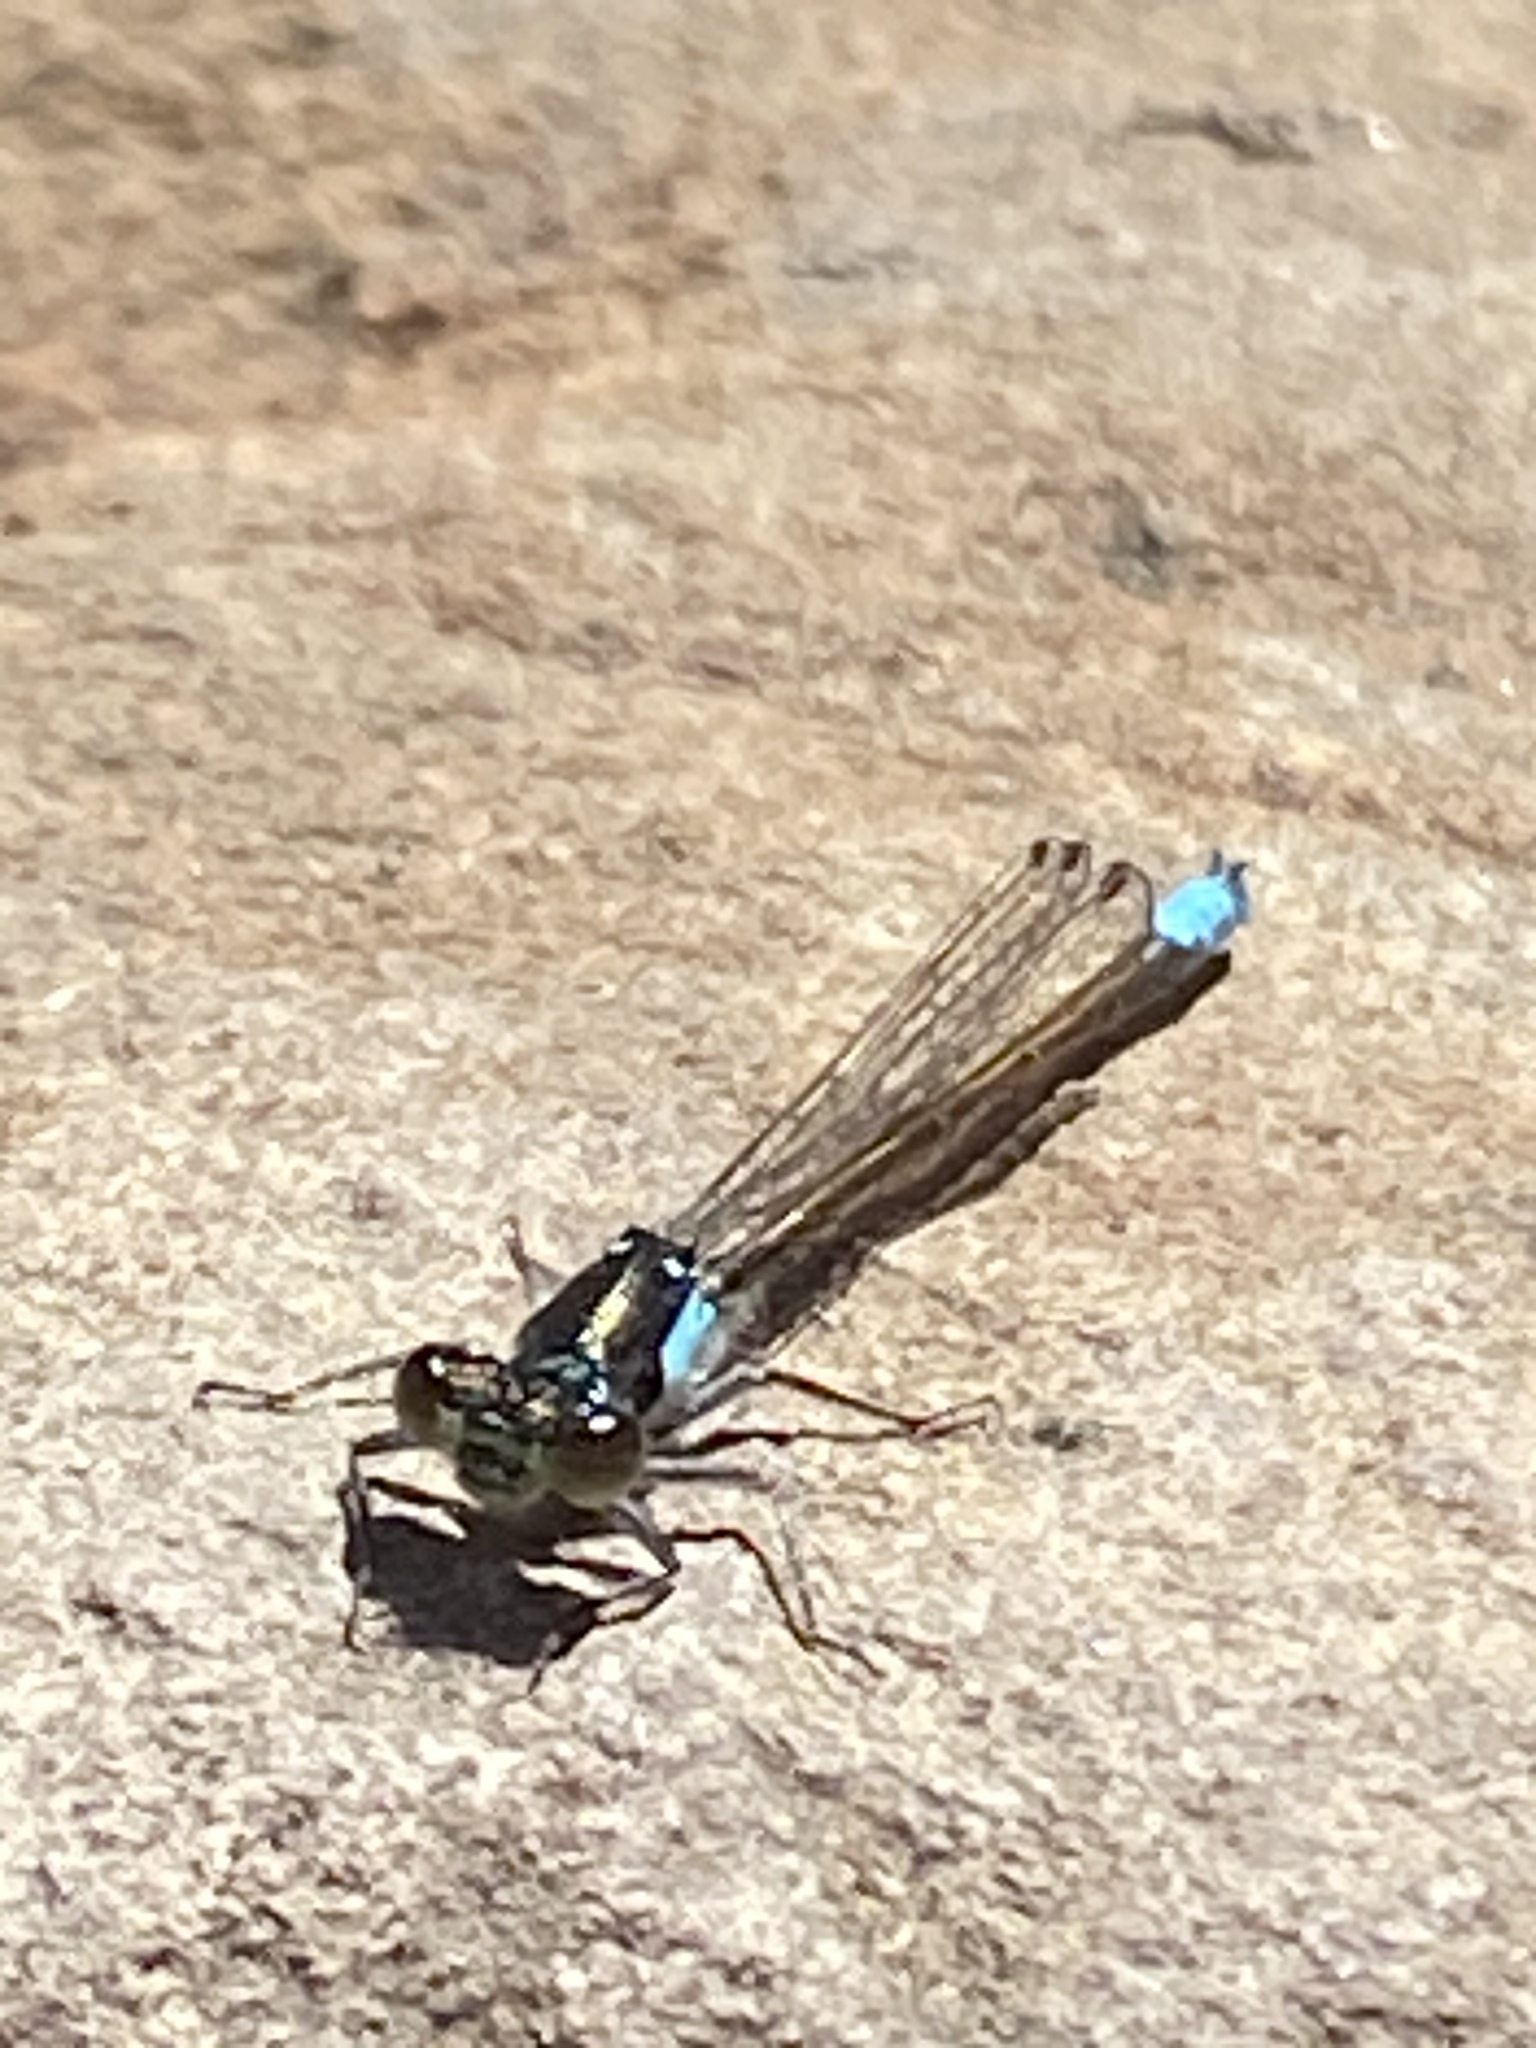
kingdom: Animalia
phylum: Arthropoda
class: Insecta
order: Odonata
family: Coenagrionidae
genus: Ischnura
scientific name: Ischnura cervula
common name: Pacific forktail
